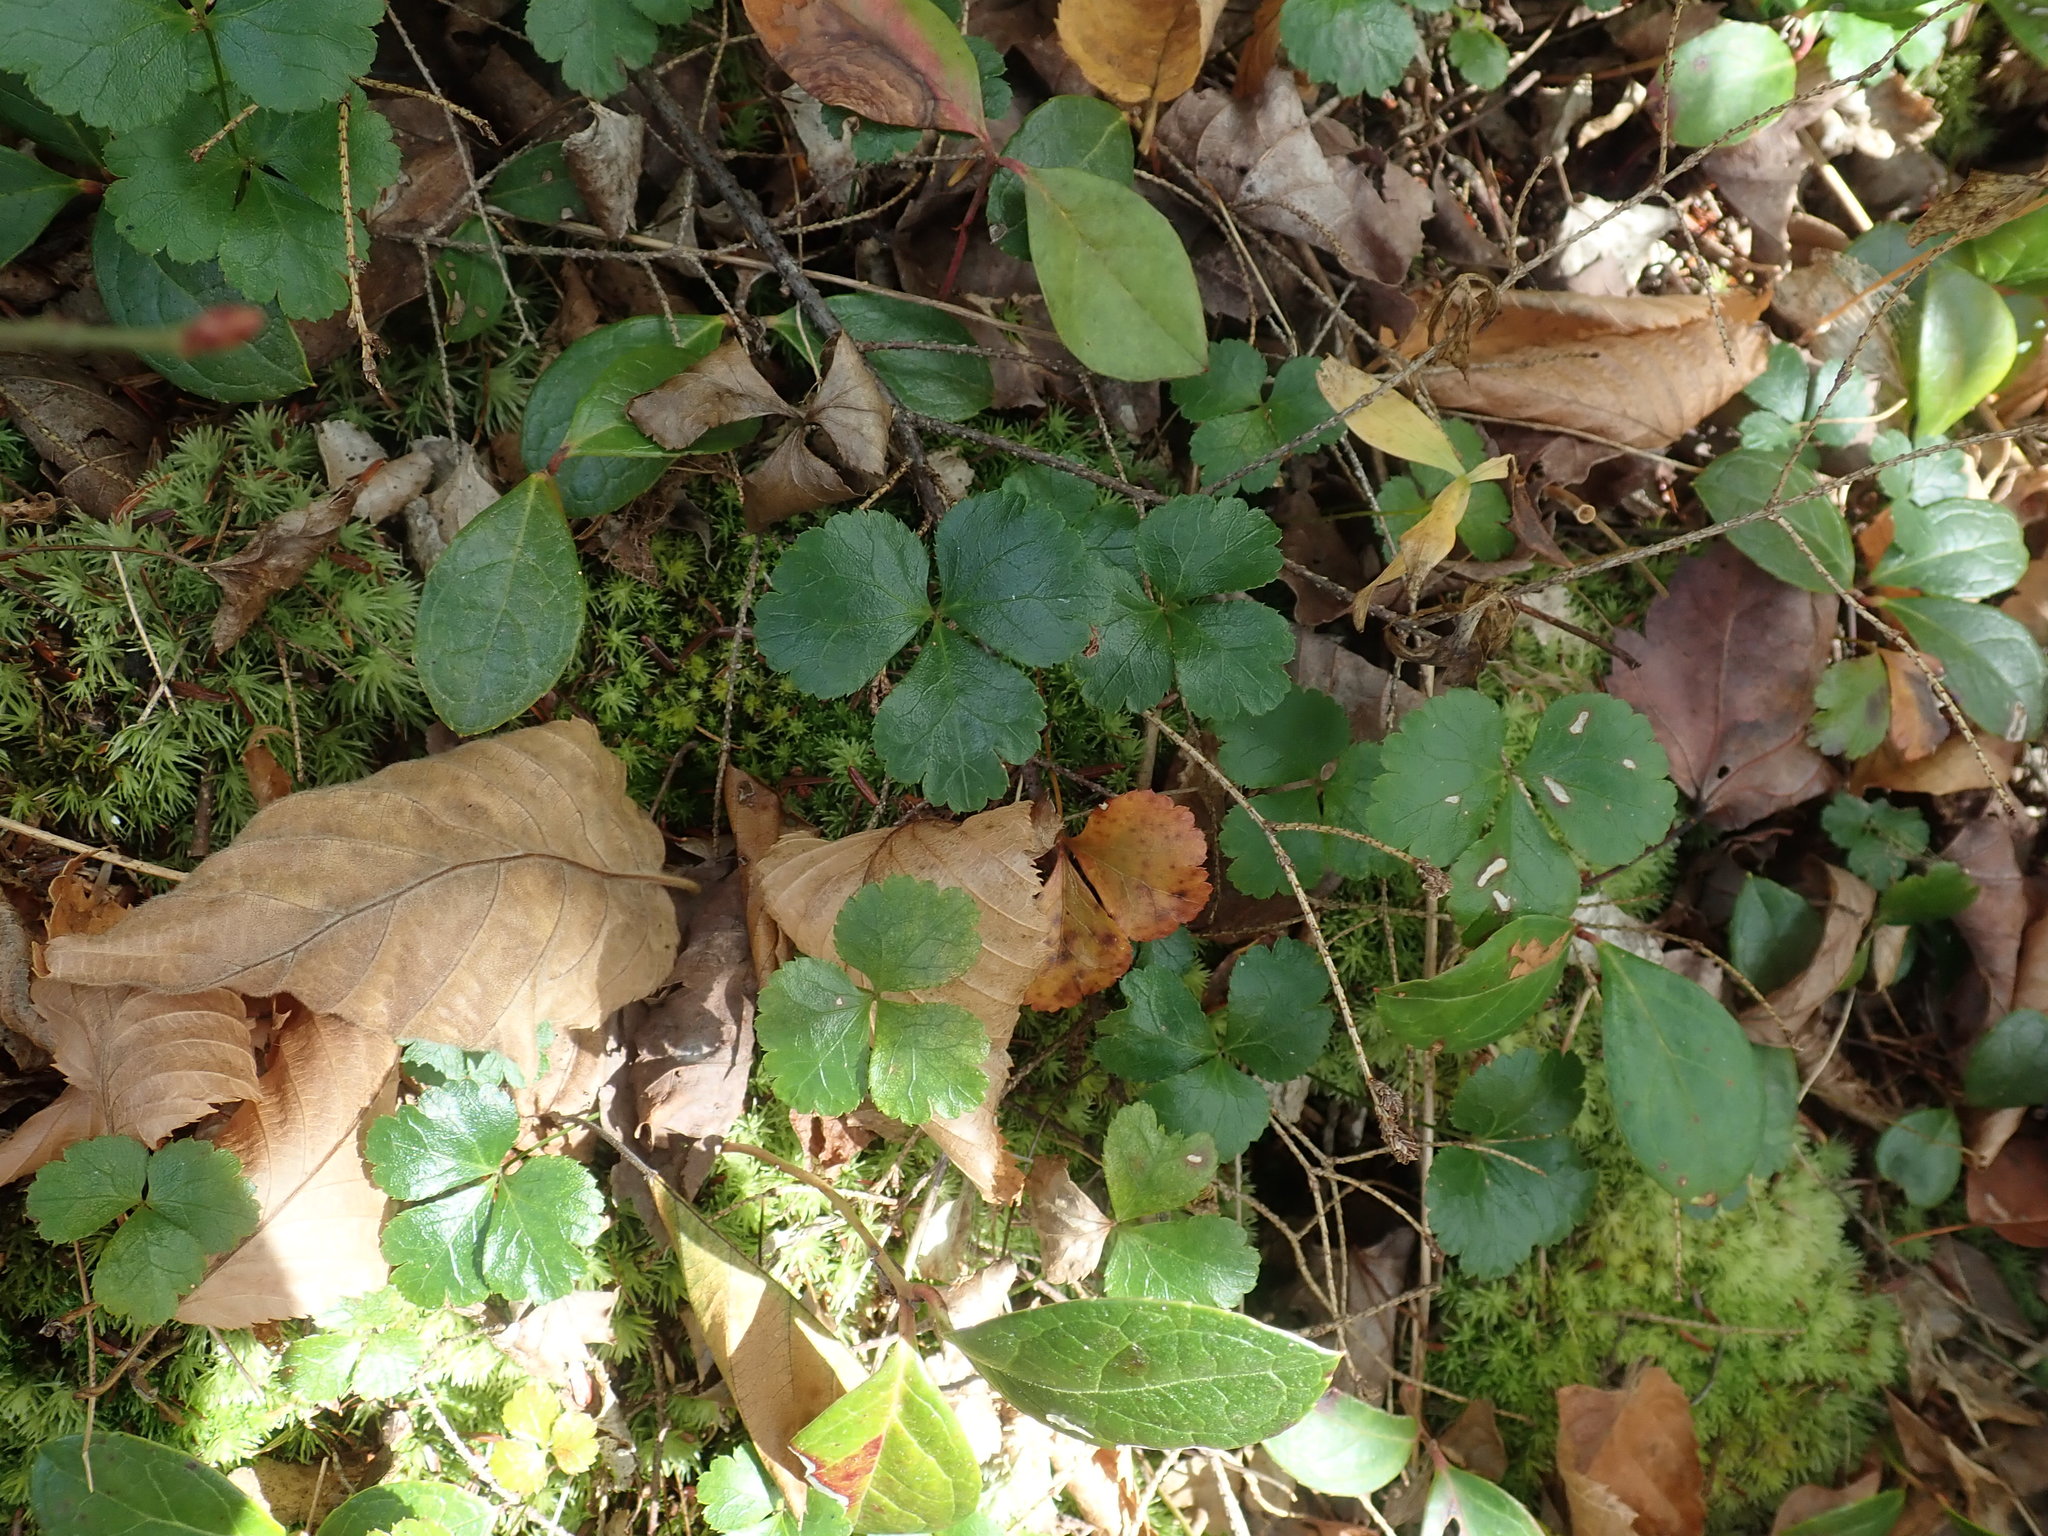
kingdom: Plantae
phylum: Tracheophyta
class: Magnoliopsida
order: Ranunculales
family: Ranunculaceae
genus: Coptis
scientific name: Coptis trifolia
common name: Canker-root
